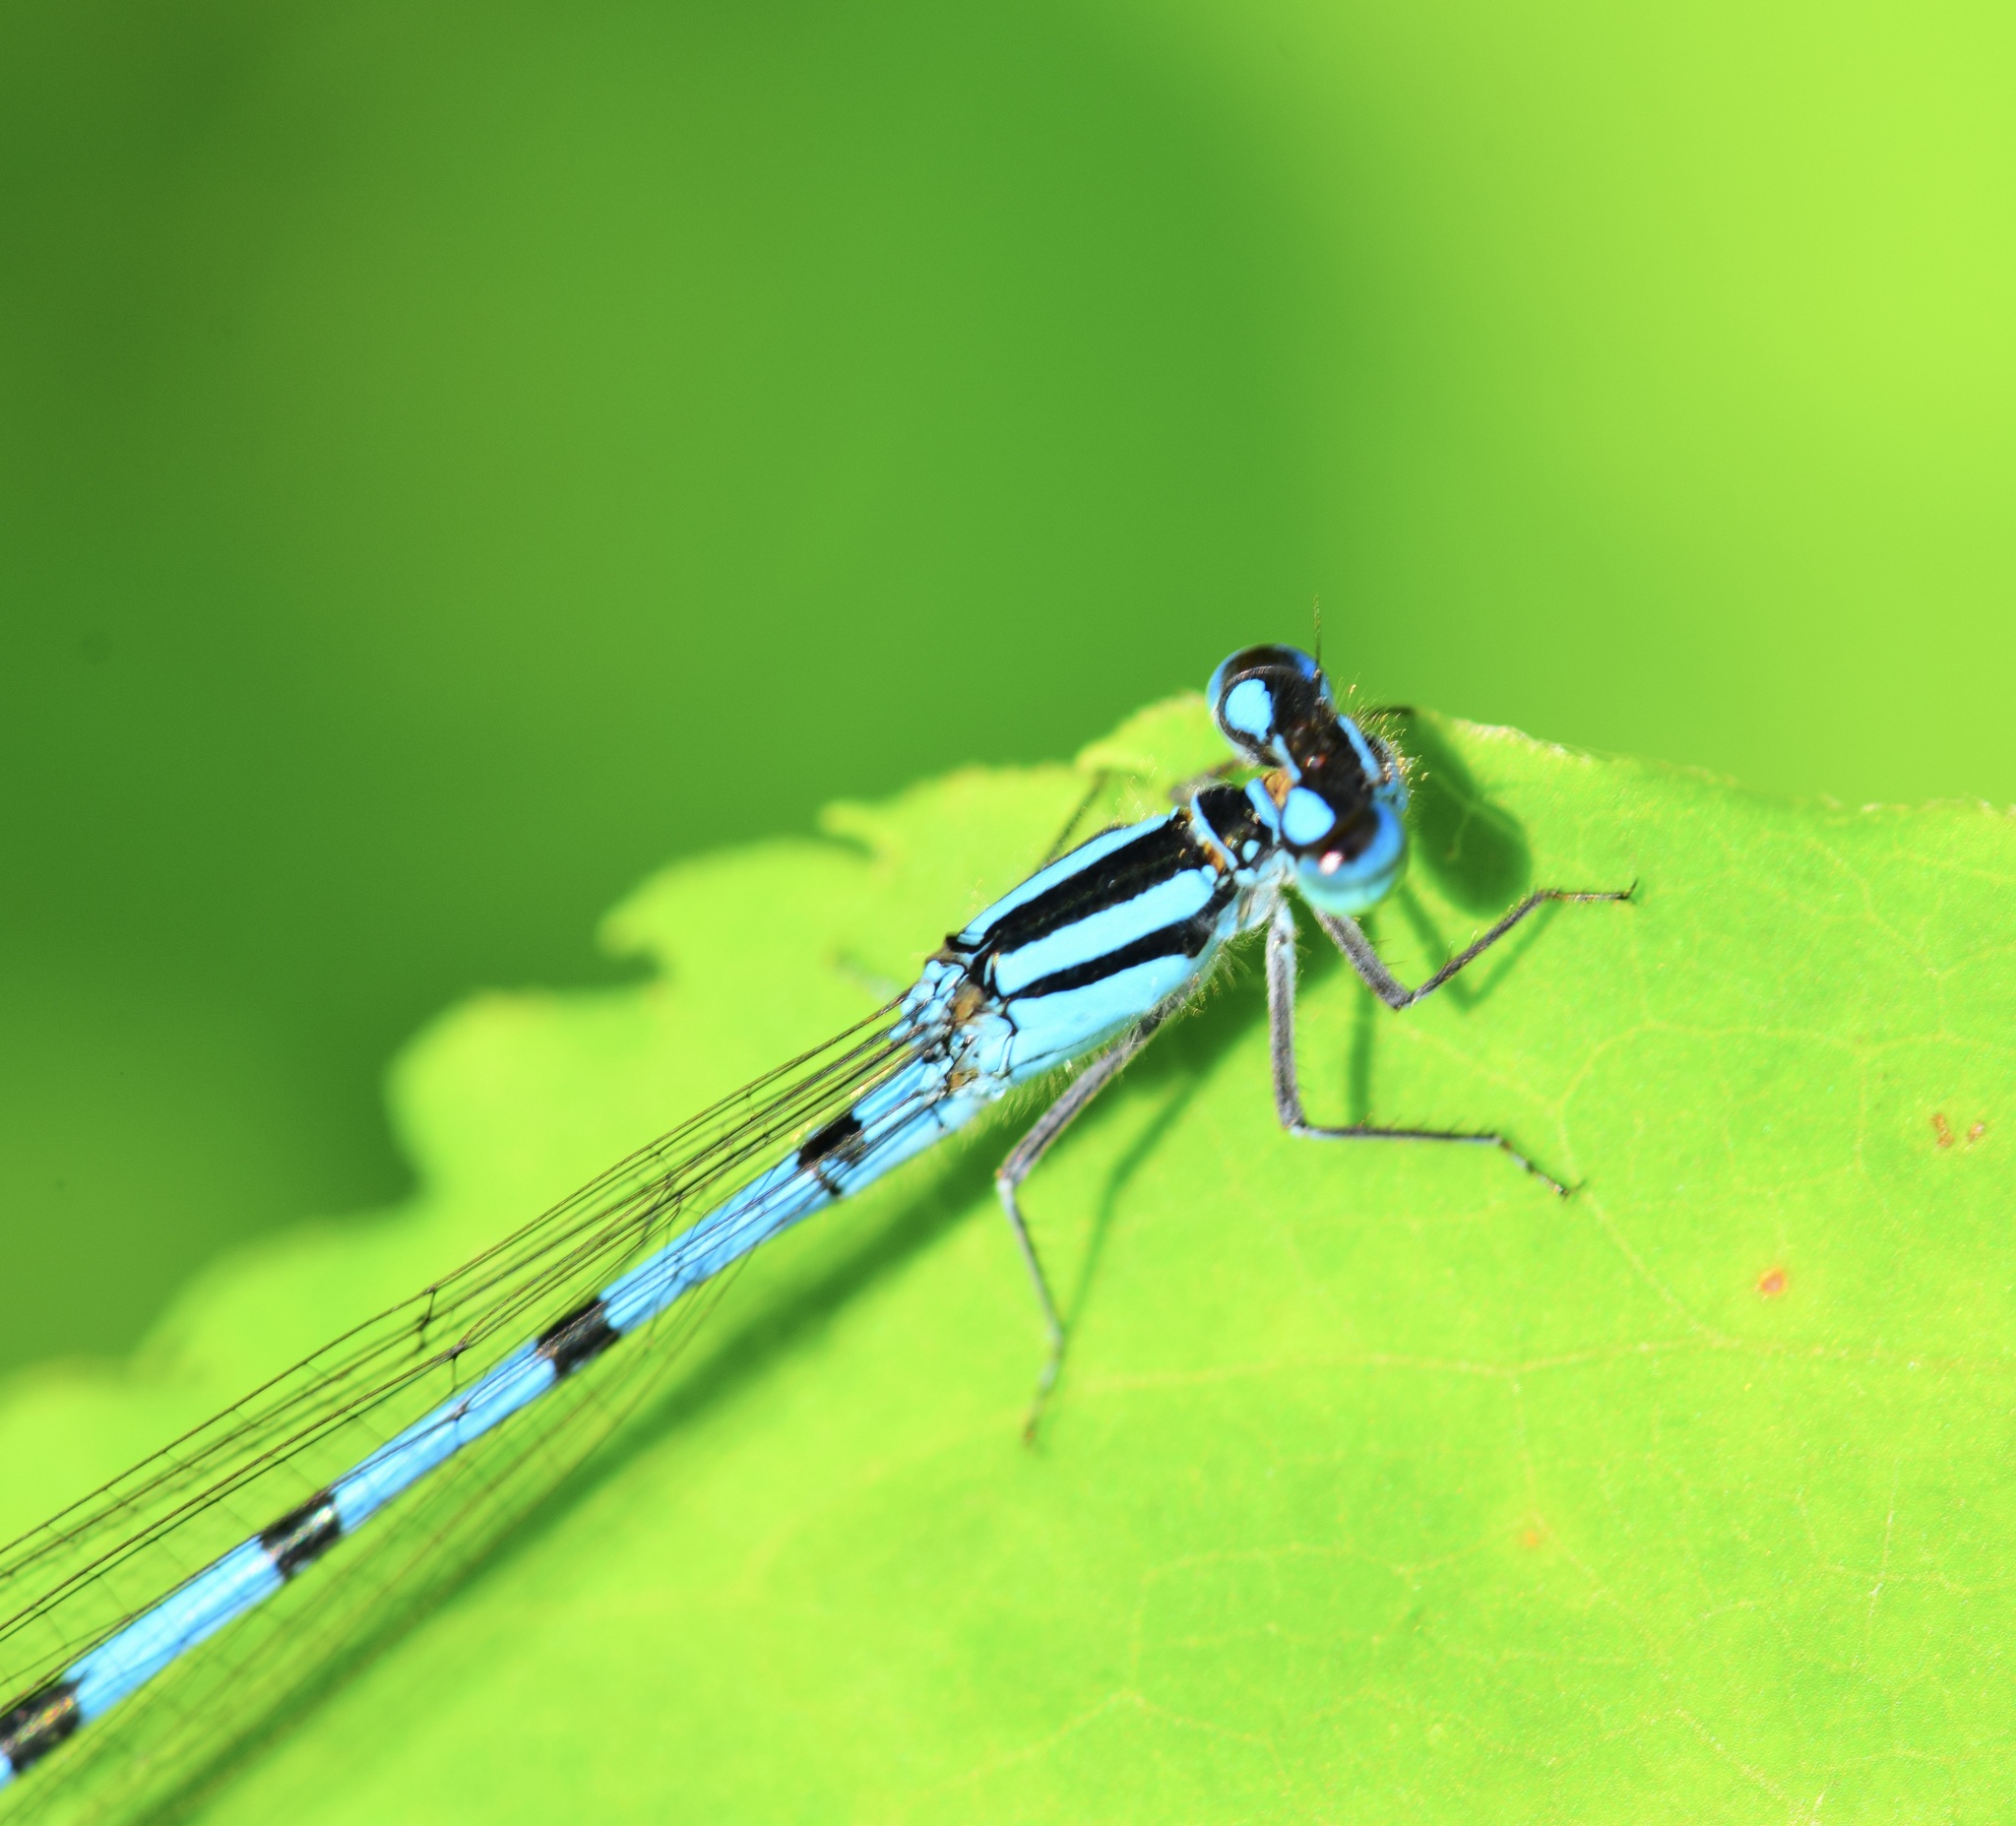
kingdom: Animalia
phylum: Arthropoda
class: Insecta
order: Odonata
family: Coenagrionidae
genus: Enallagma
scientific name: Enallagma ebrium
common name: Marsh bluet
